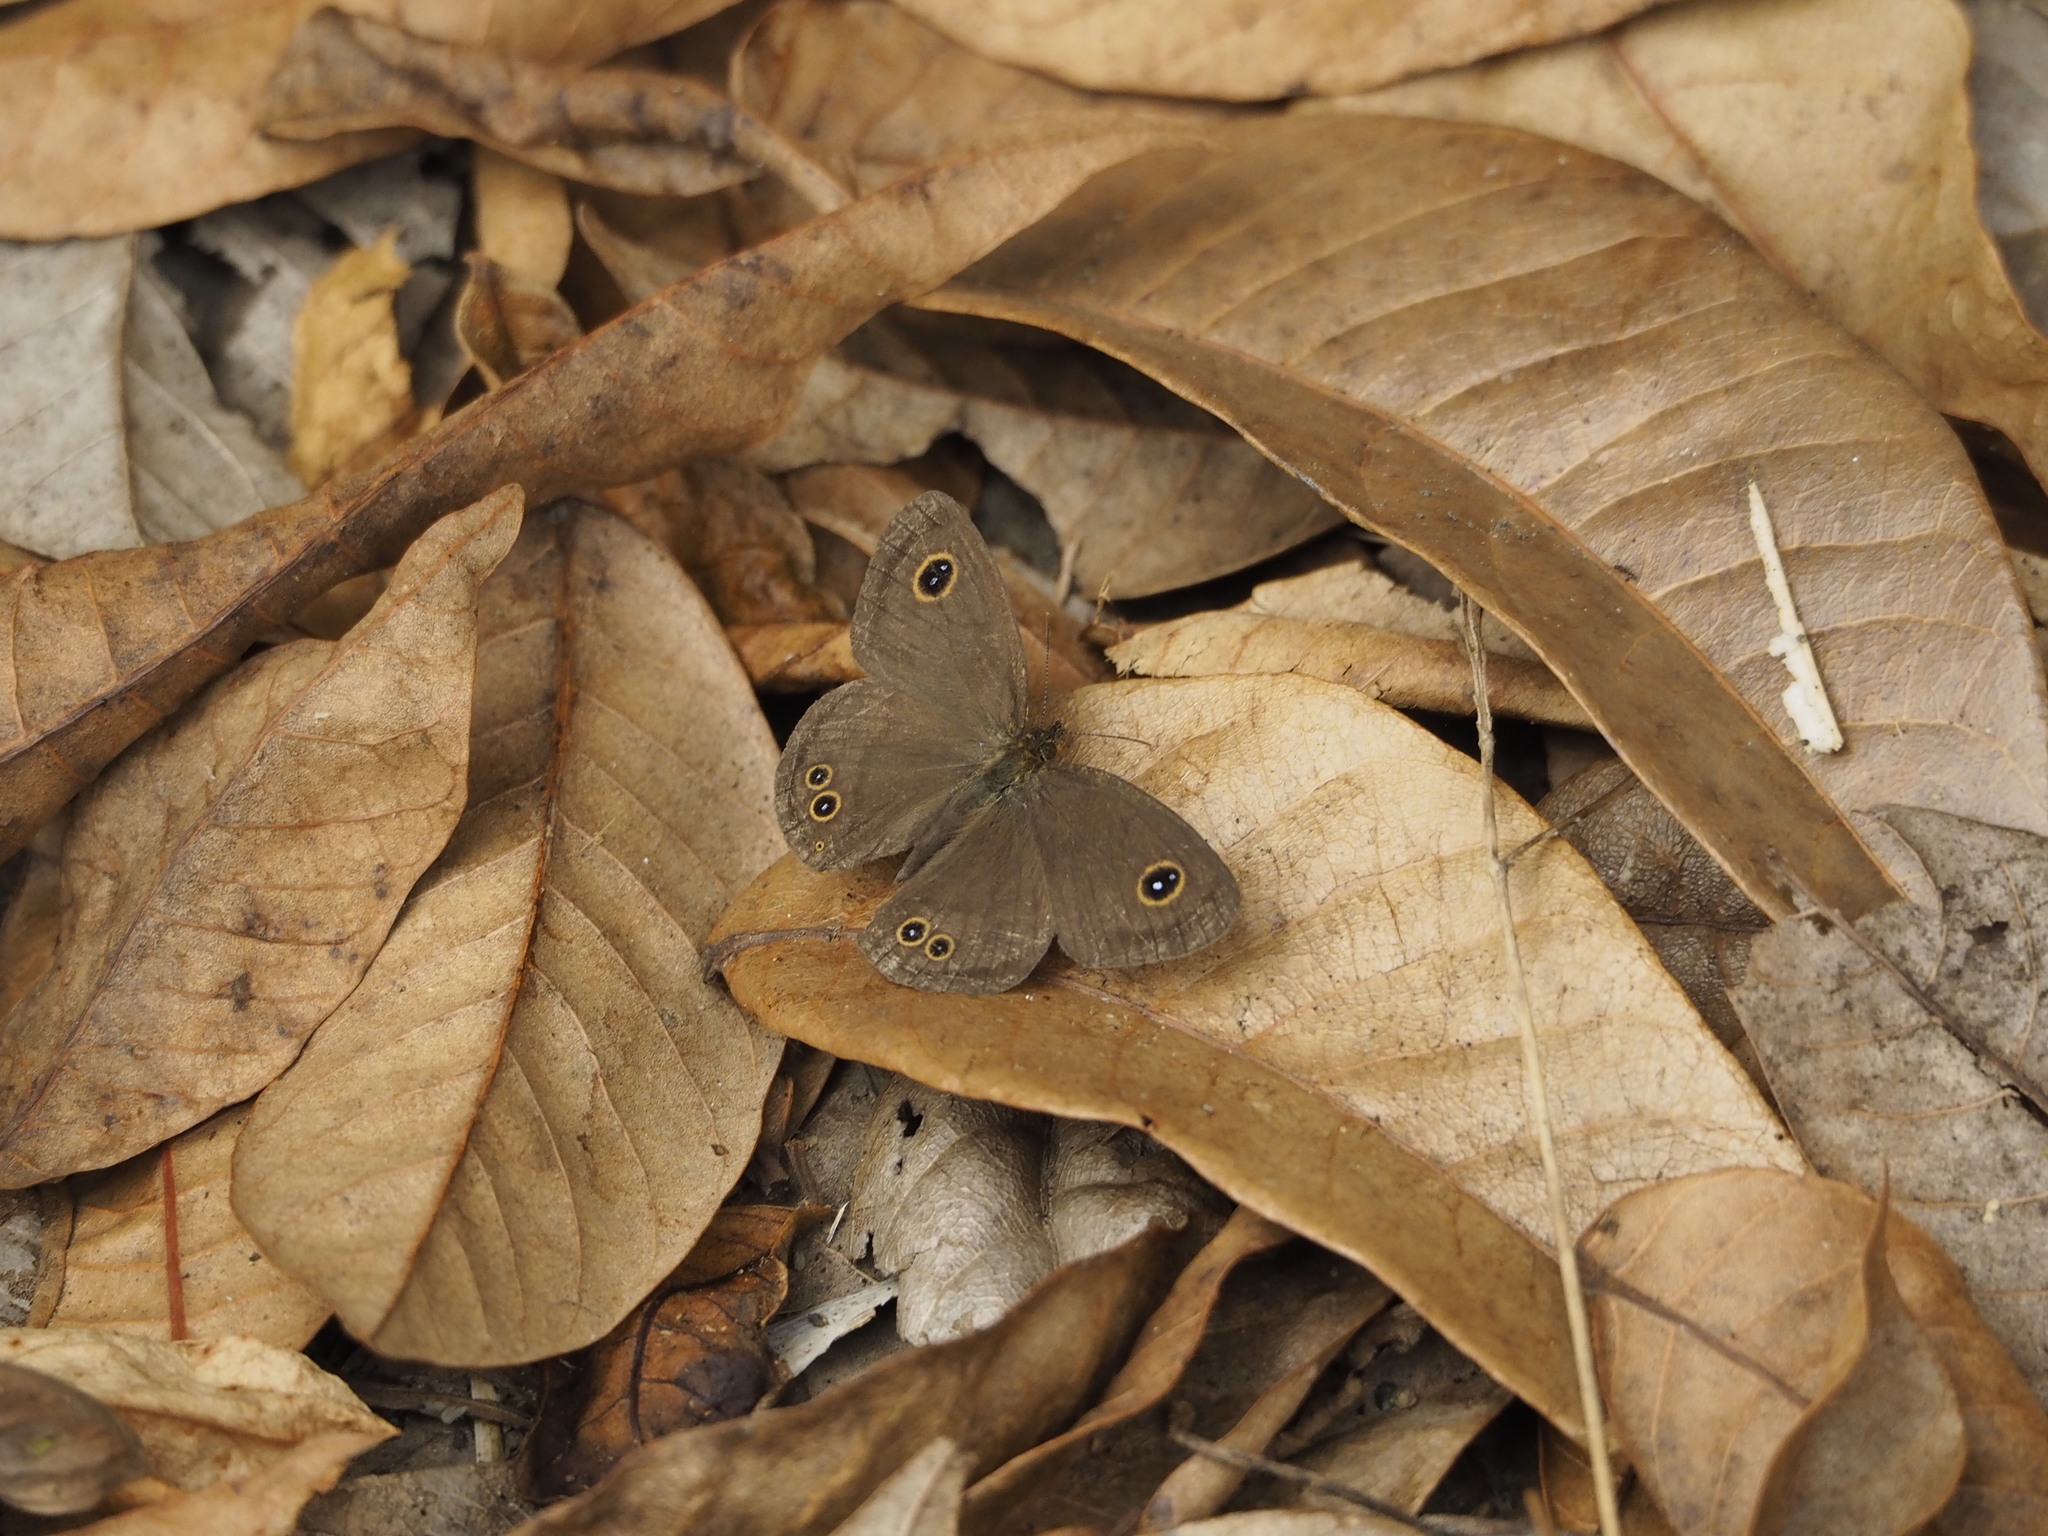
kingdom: Animalia
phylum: Arthropoda
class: Insecta
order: Lepidoptera
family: Nymphalidae
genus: Ypthima
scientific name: Ypthima baldus
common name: Common five-ring
